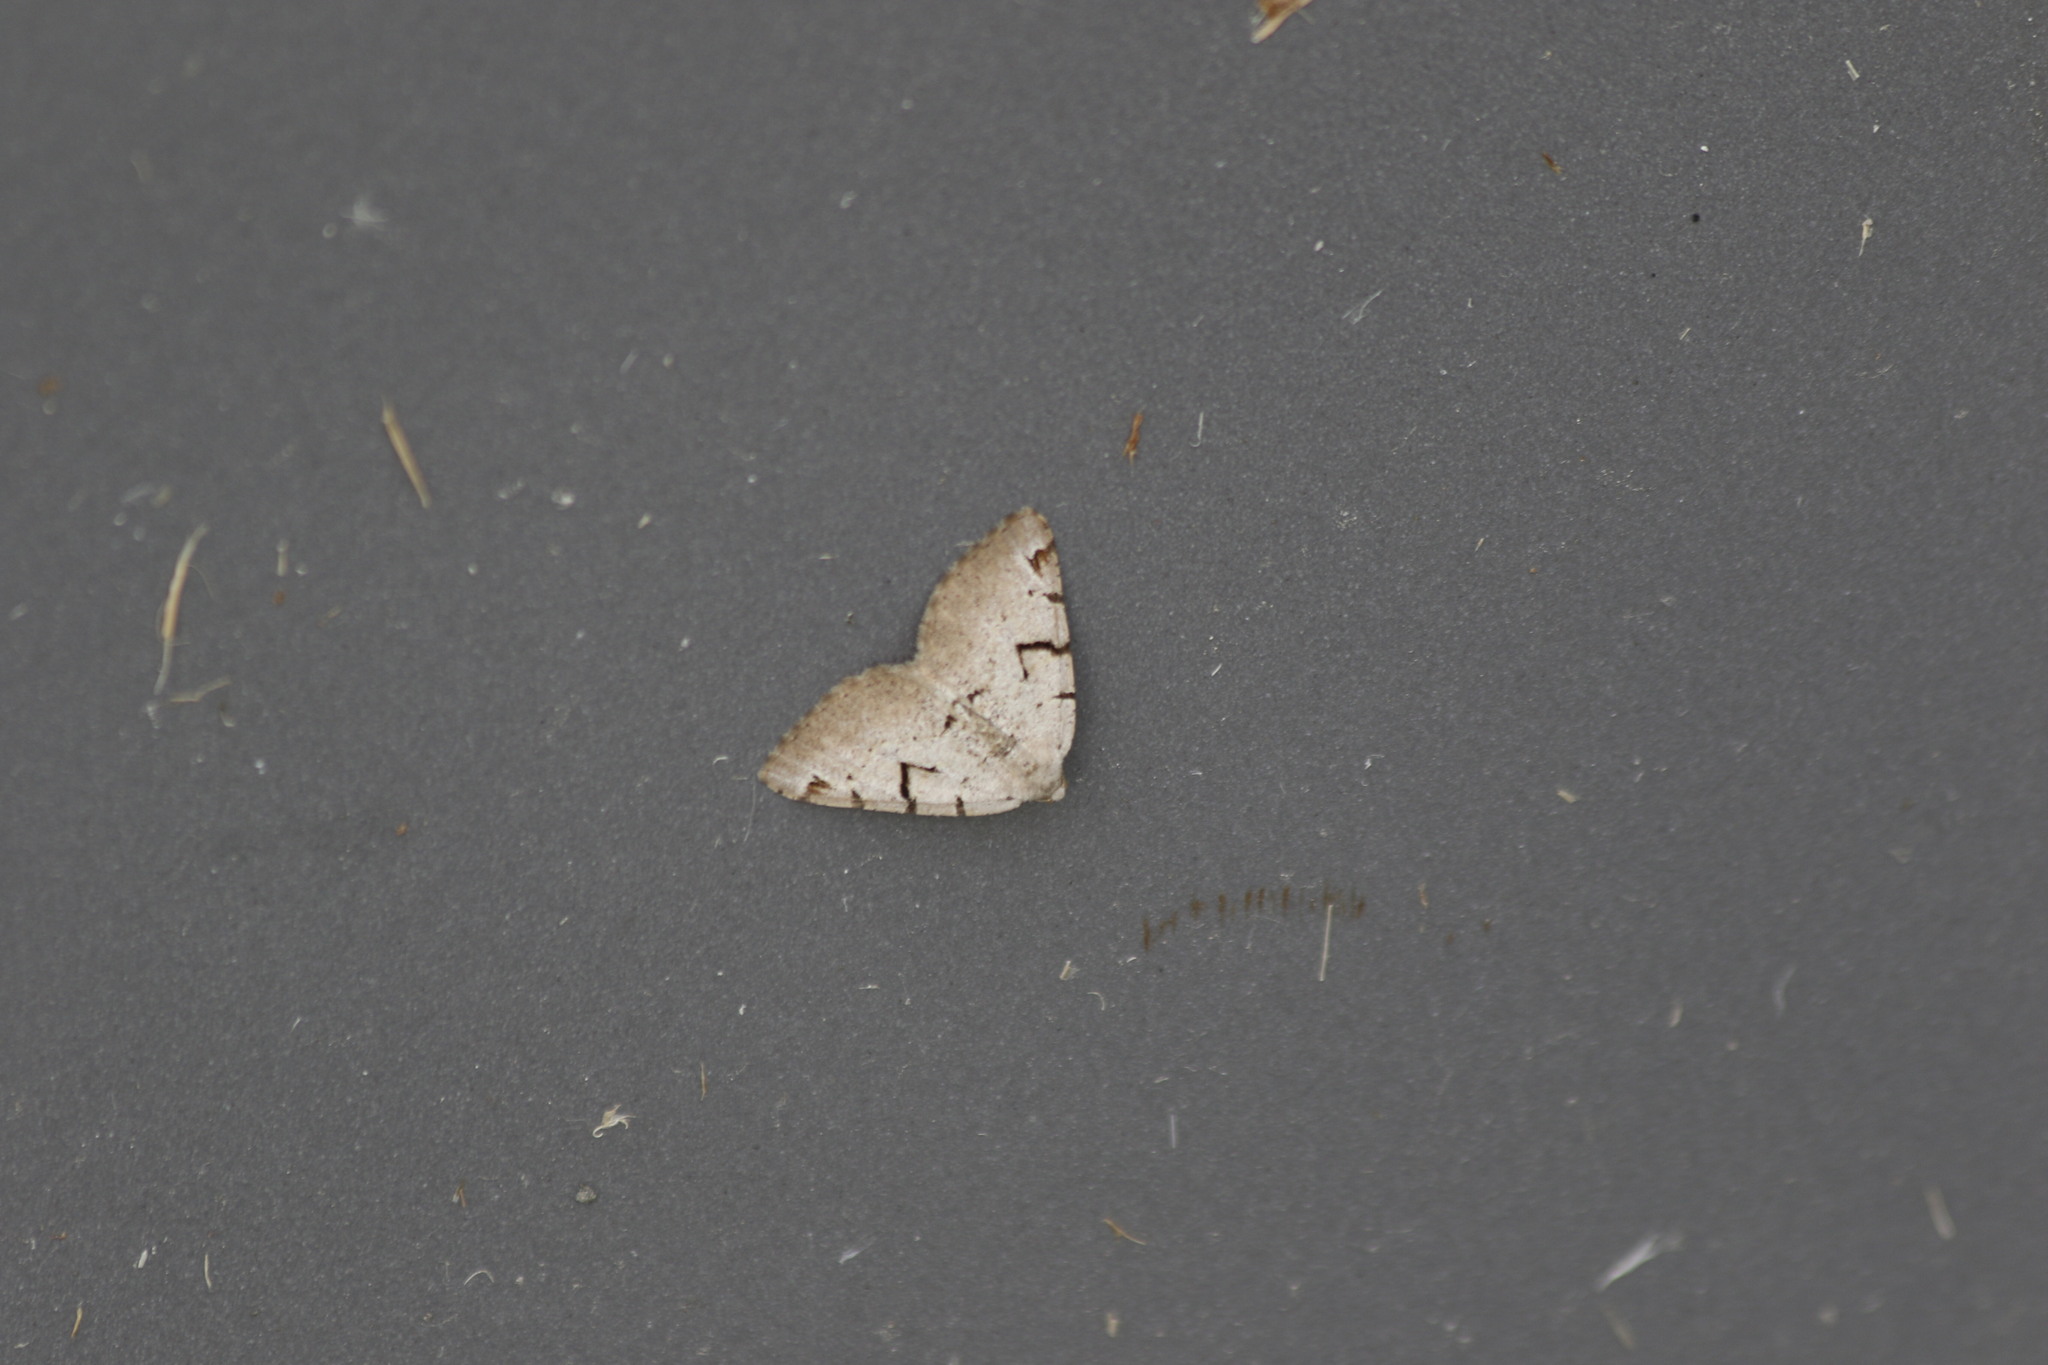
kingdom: Animalia
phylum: Arthropoda
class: Insecta
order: Lepidoptera
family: Geometridae
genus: Macaria
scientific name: Macaria wauaria
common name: V-moth
